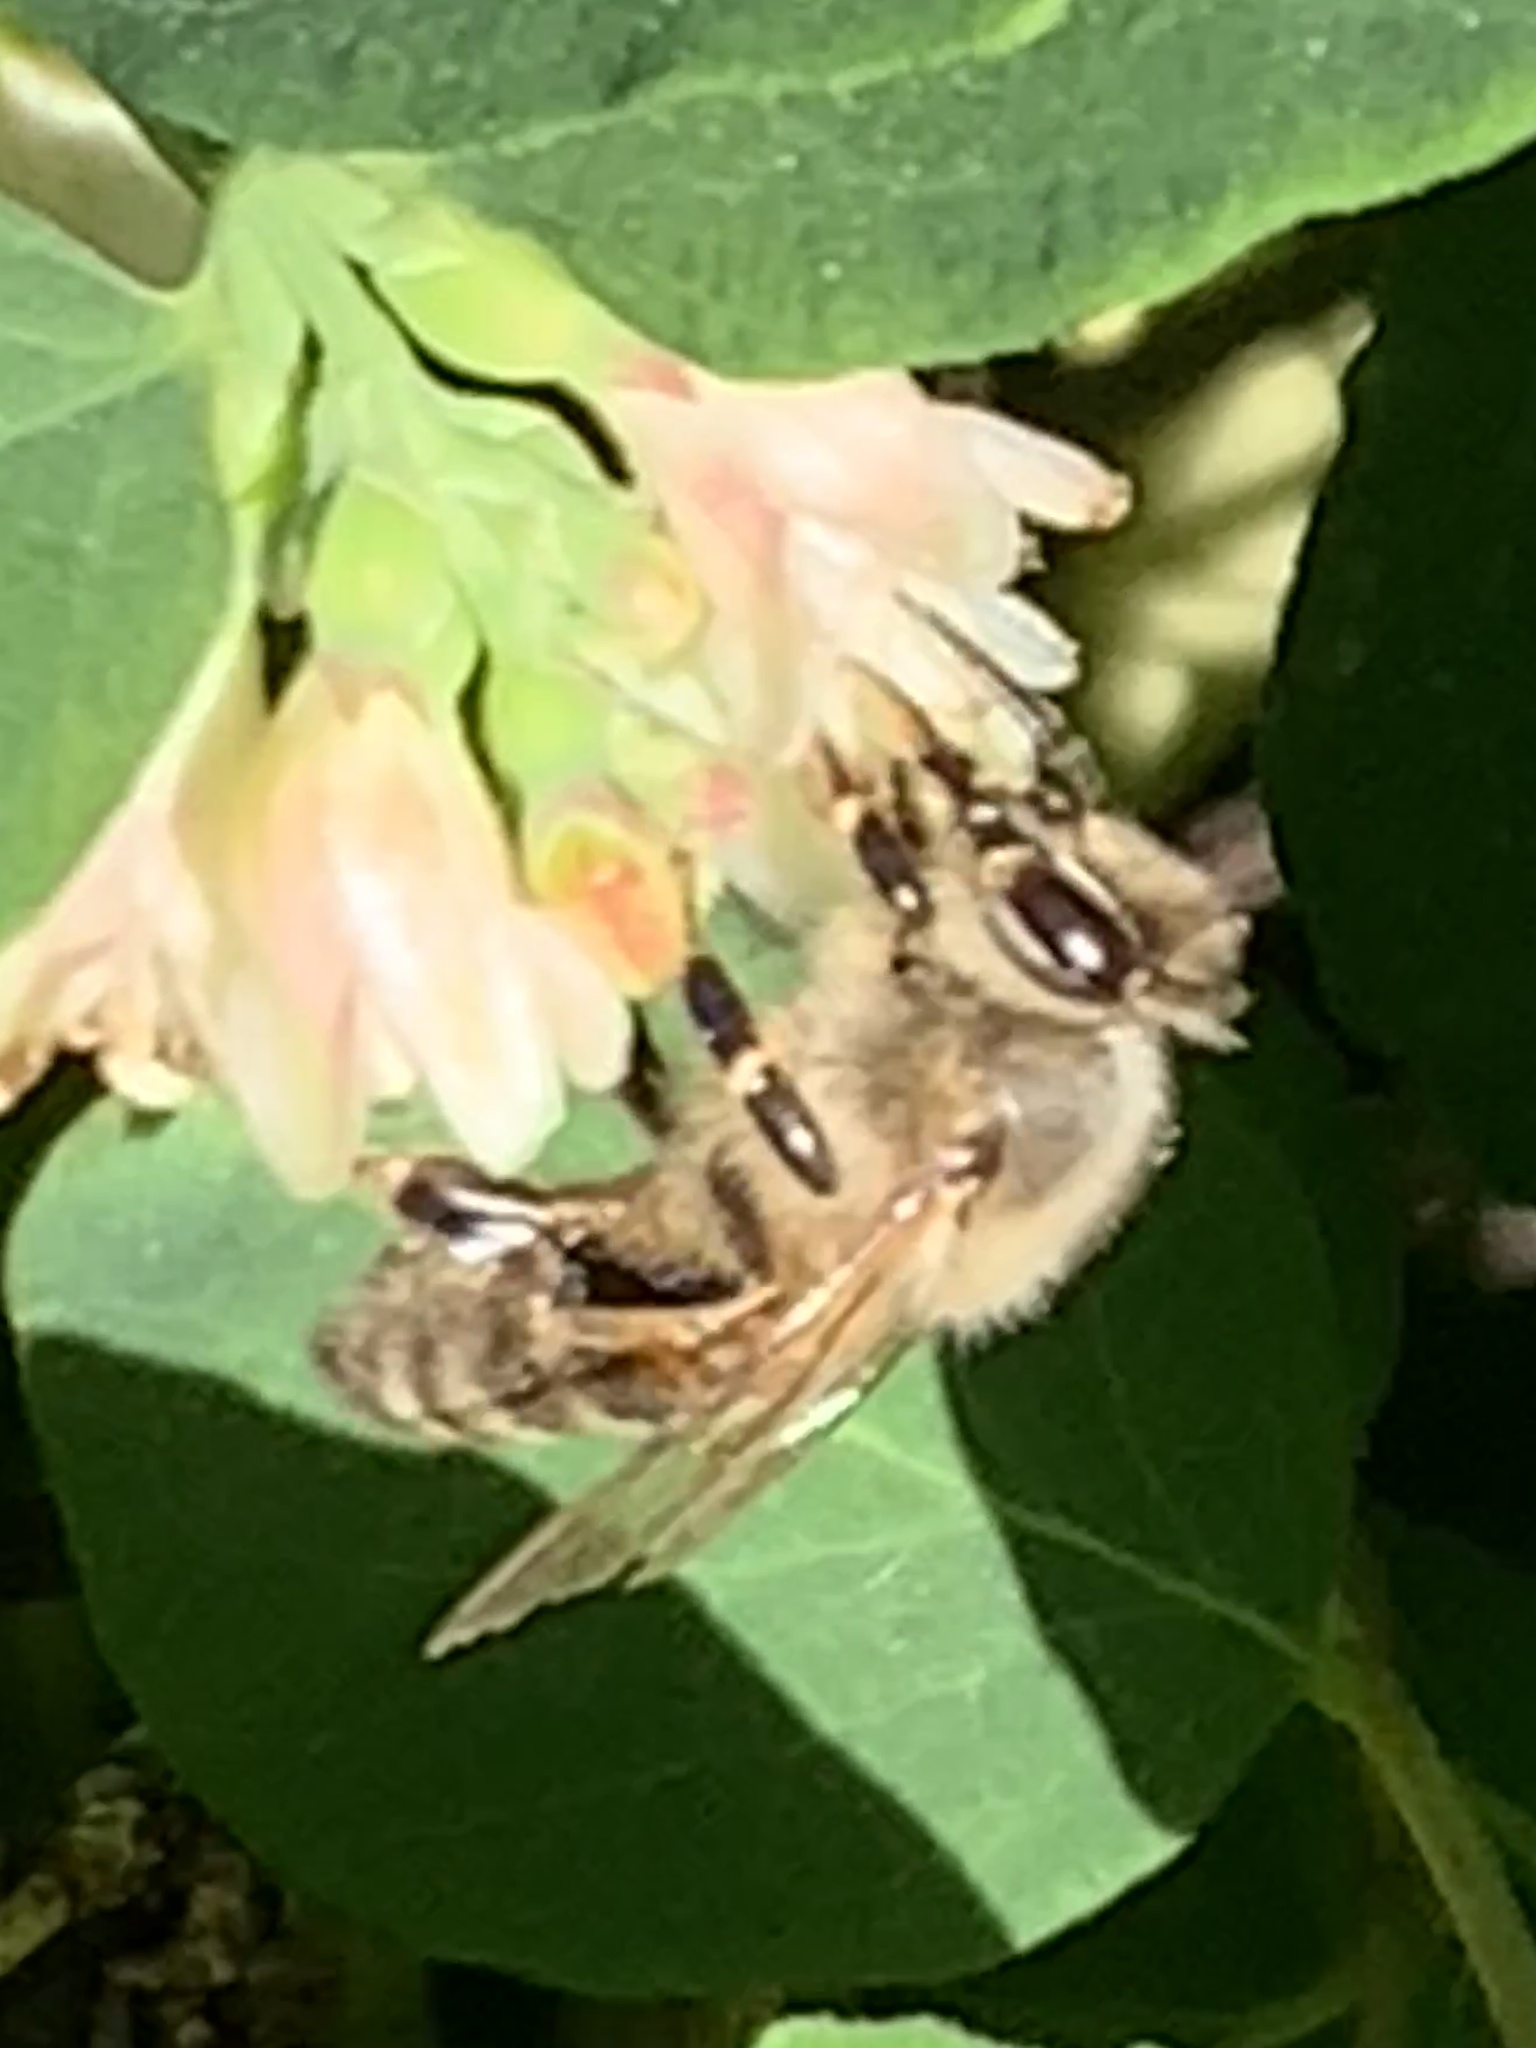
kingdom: Animalia
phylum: Arthropoda
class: Insecta
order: Hymenoptera
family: Apidae
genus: Apis
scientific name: Apis mellifera
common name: Honey bee
